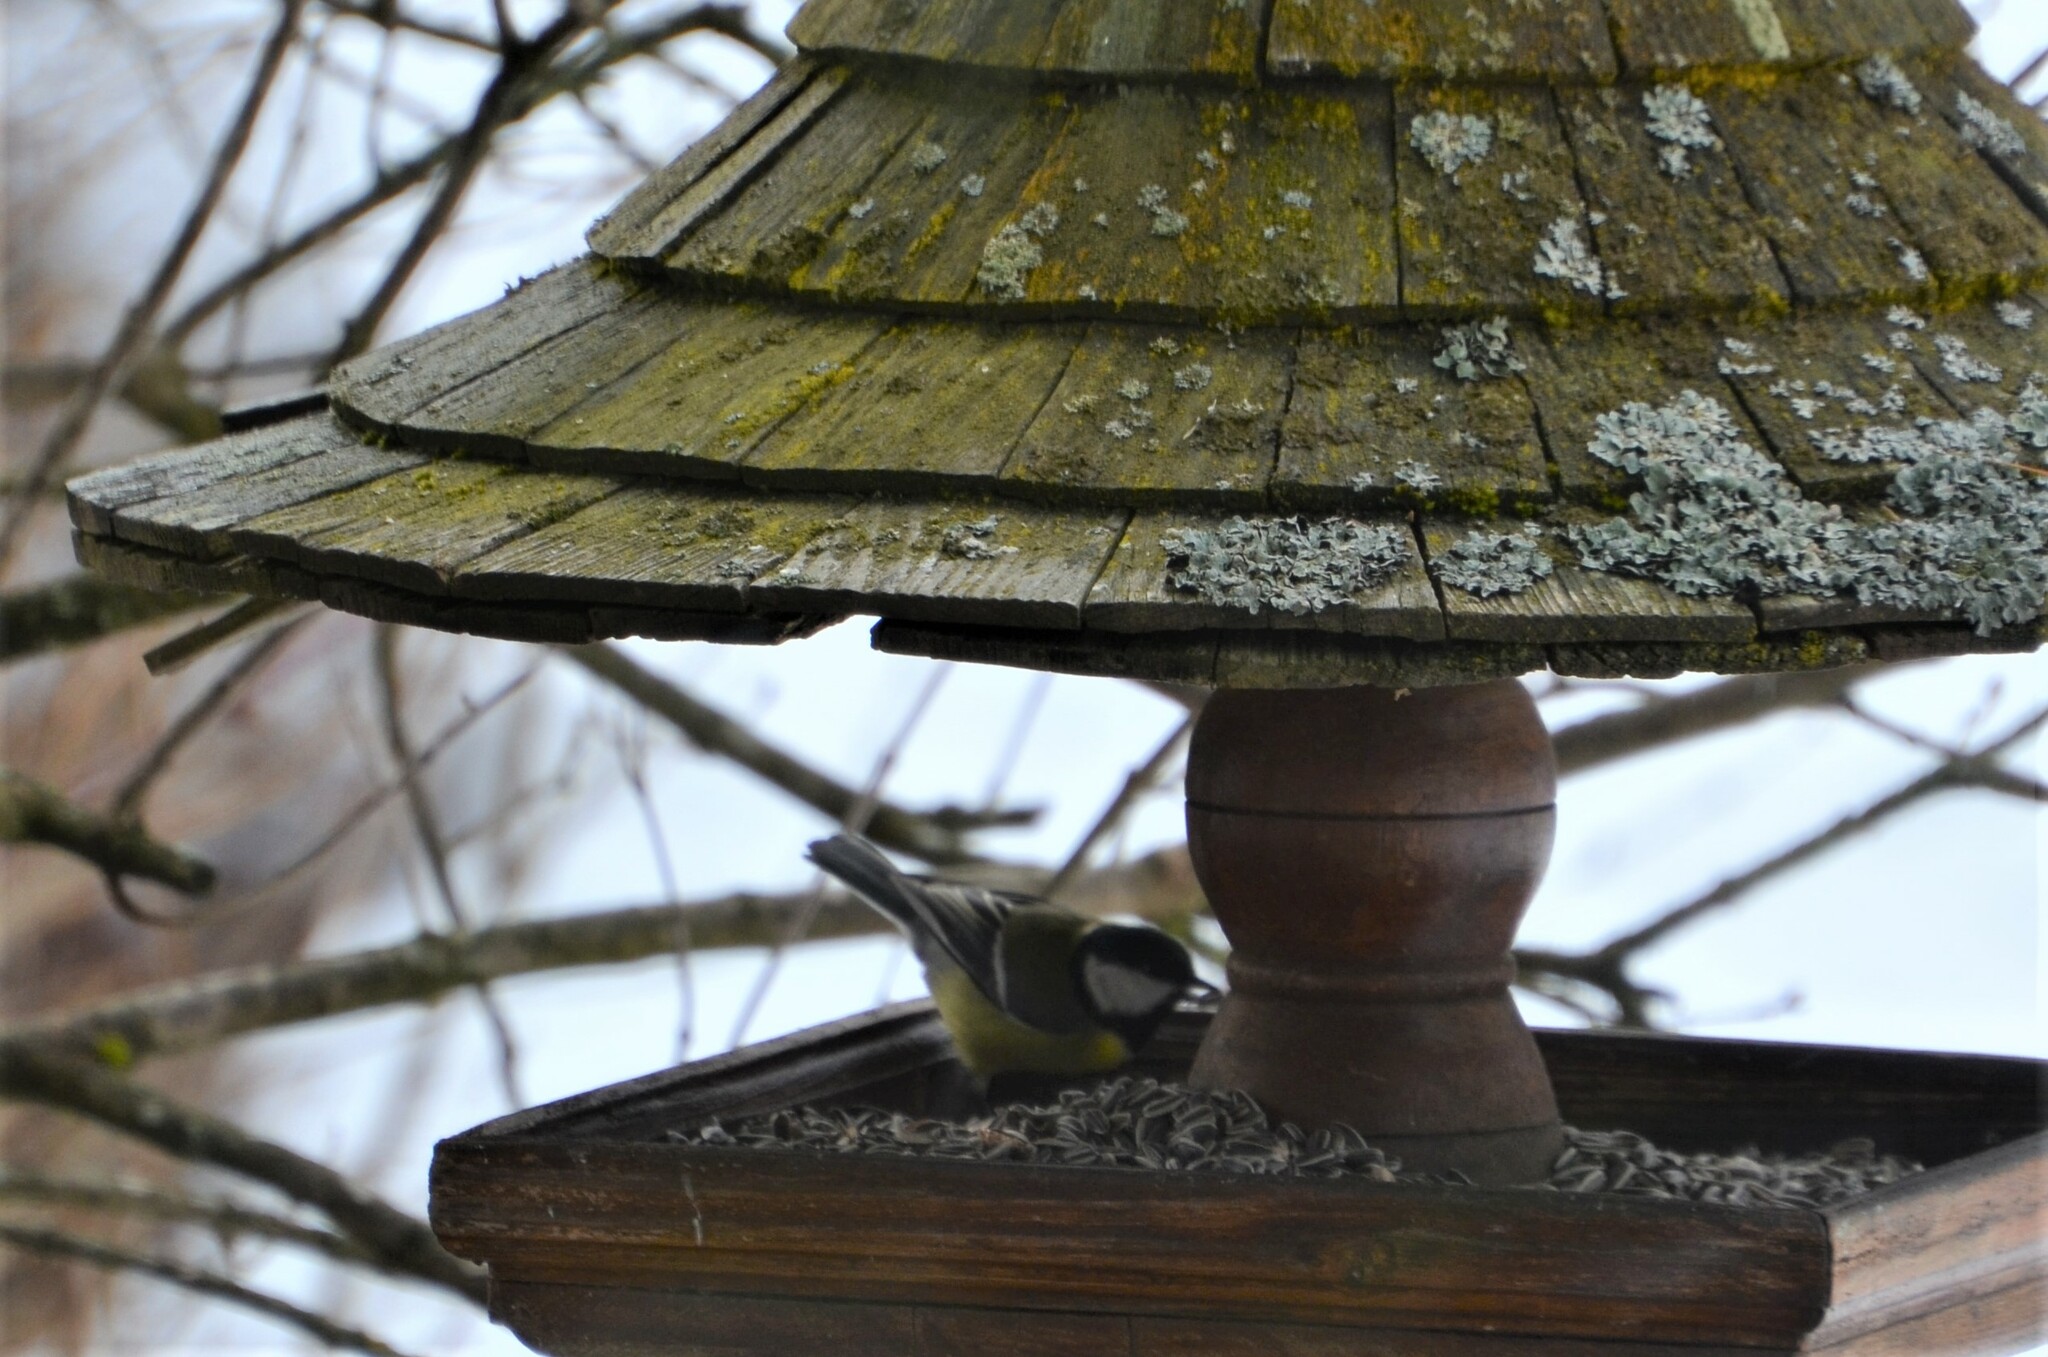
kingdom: Animalia
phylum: Chordata
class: Aves
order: Passeriformes
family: Paridae
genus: Parus
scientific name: Parus major
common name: Great tit
